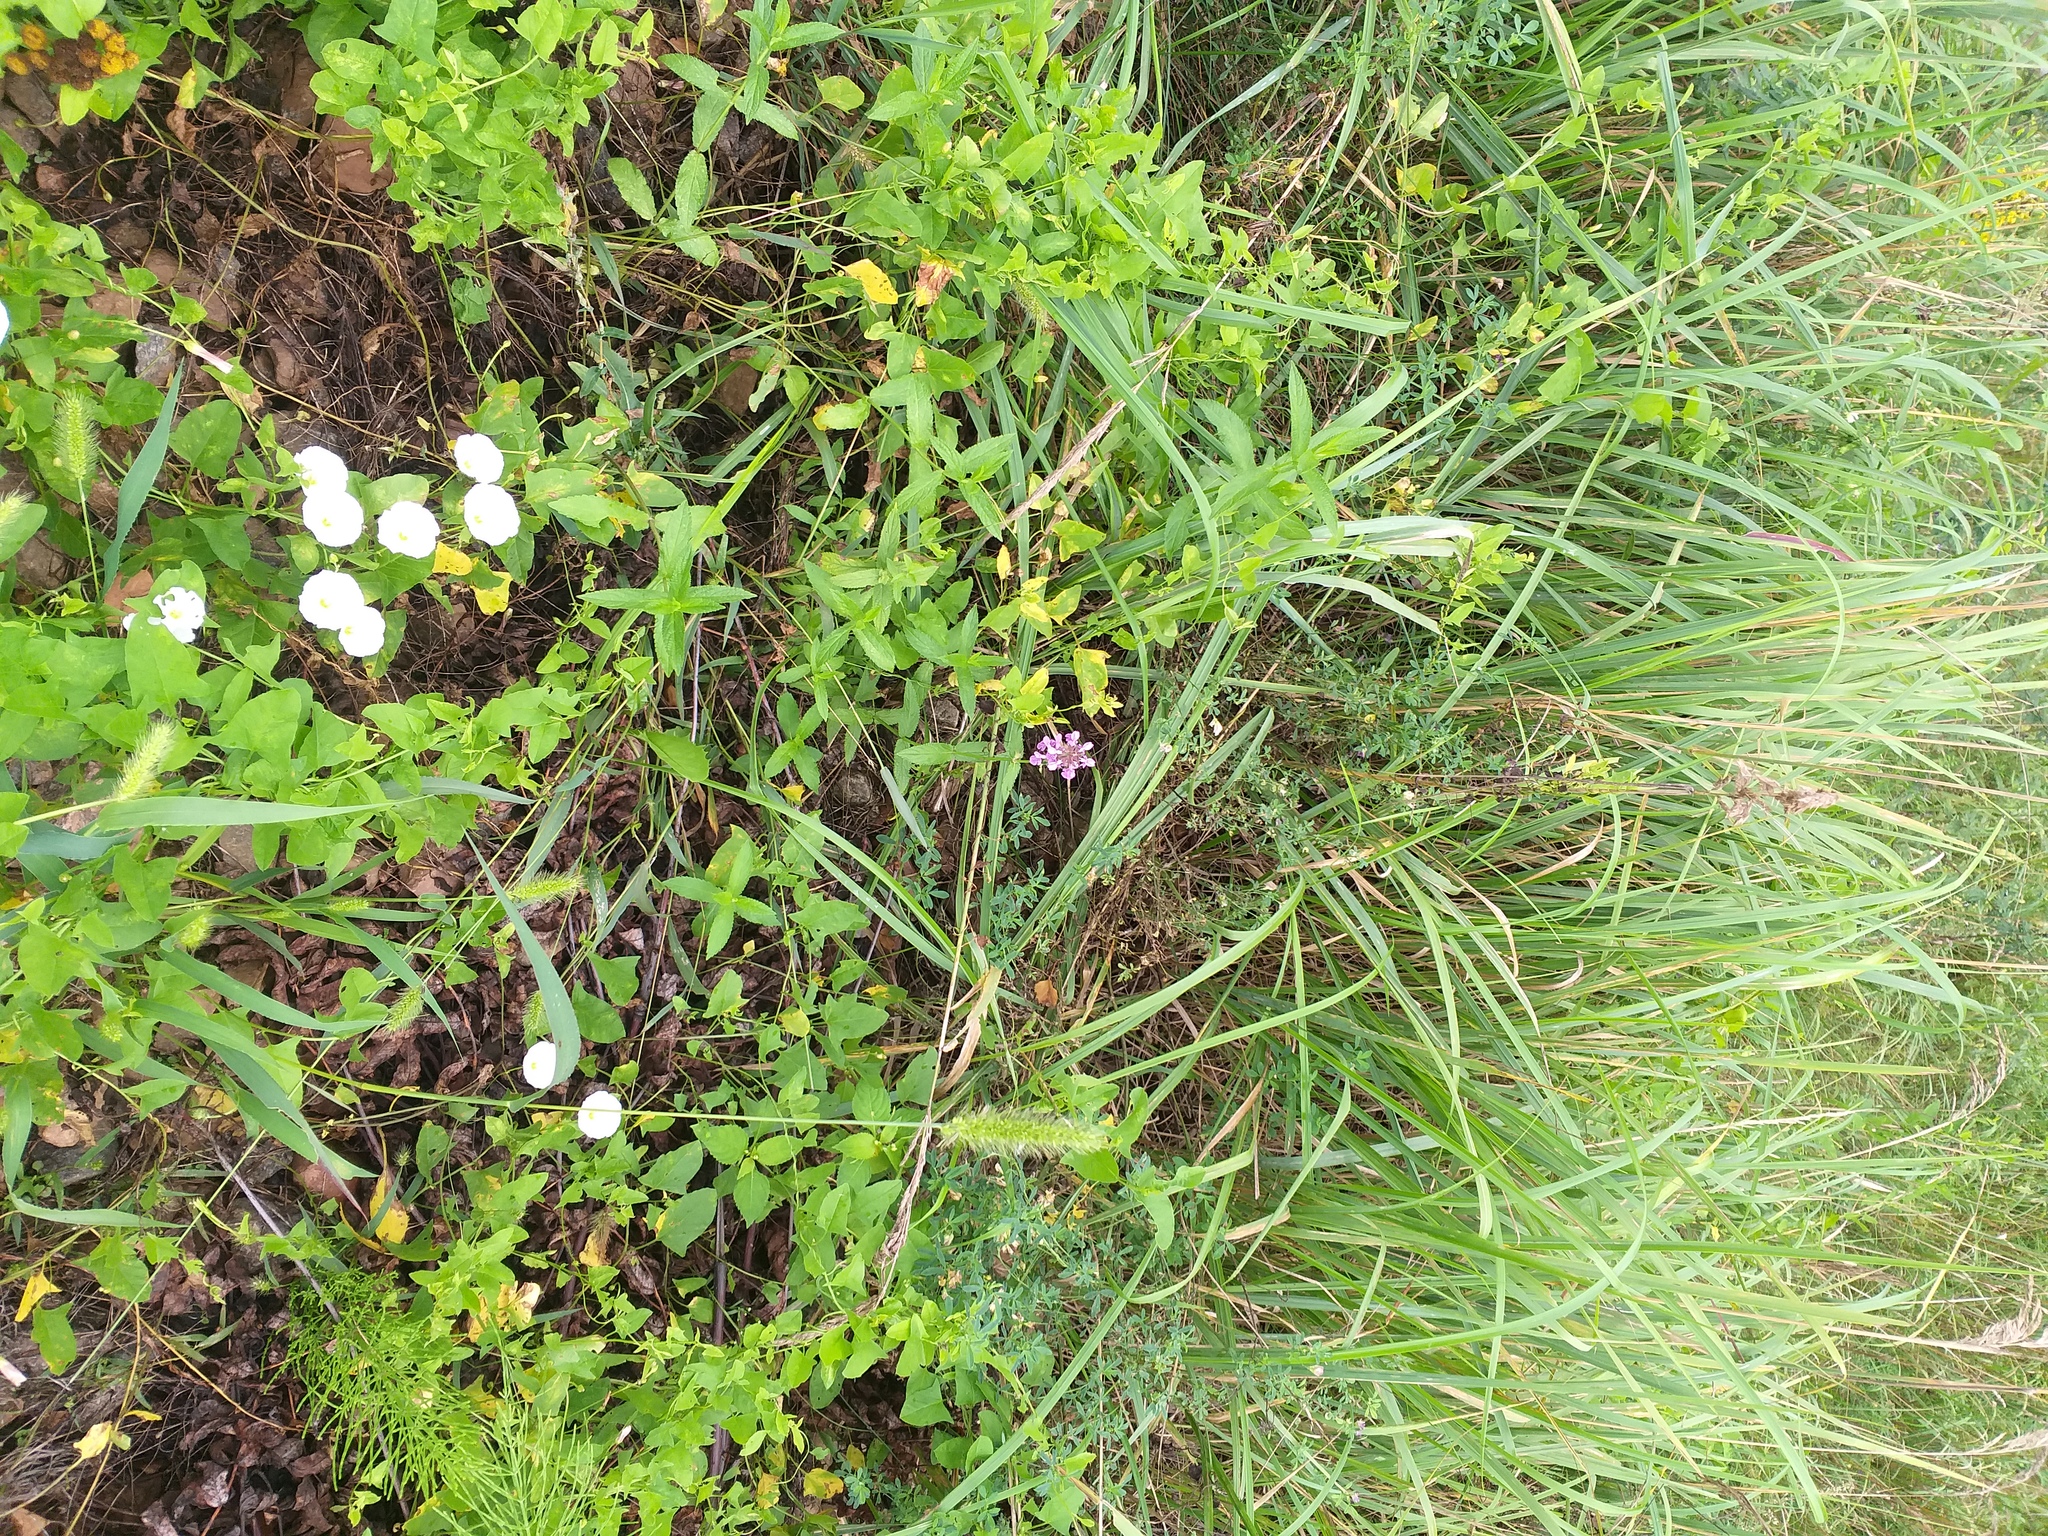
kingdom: Plantae
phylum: Tracheophyta
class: Magnoliopsida
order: Lamiales
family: Lamiaceae
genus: Stachys
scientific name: Stachys palustris
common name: Marsh woundwort
